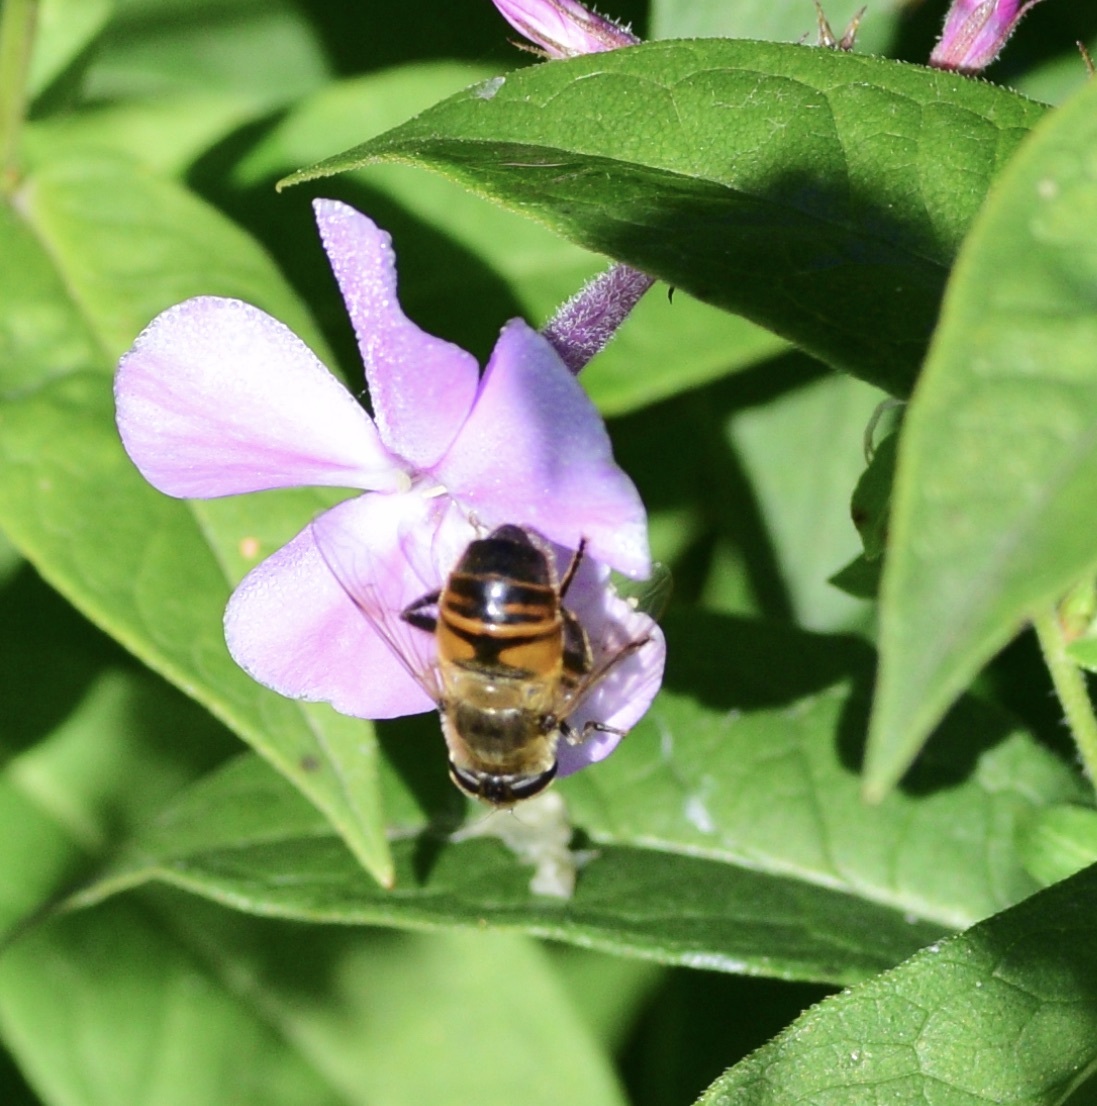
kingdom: Animalia
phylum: Arthropoda
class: Insecta
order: Diptera
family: Syrphidae
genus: Eristalis
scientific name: Eristalis tenax
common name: Drone fly
